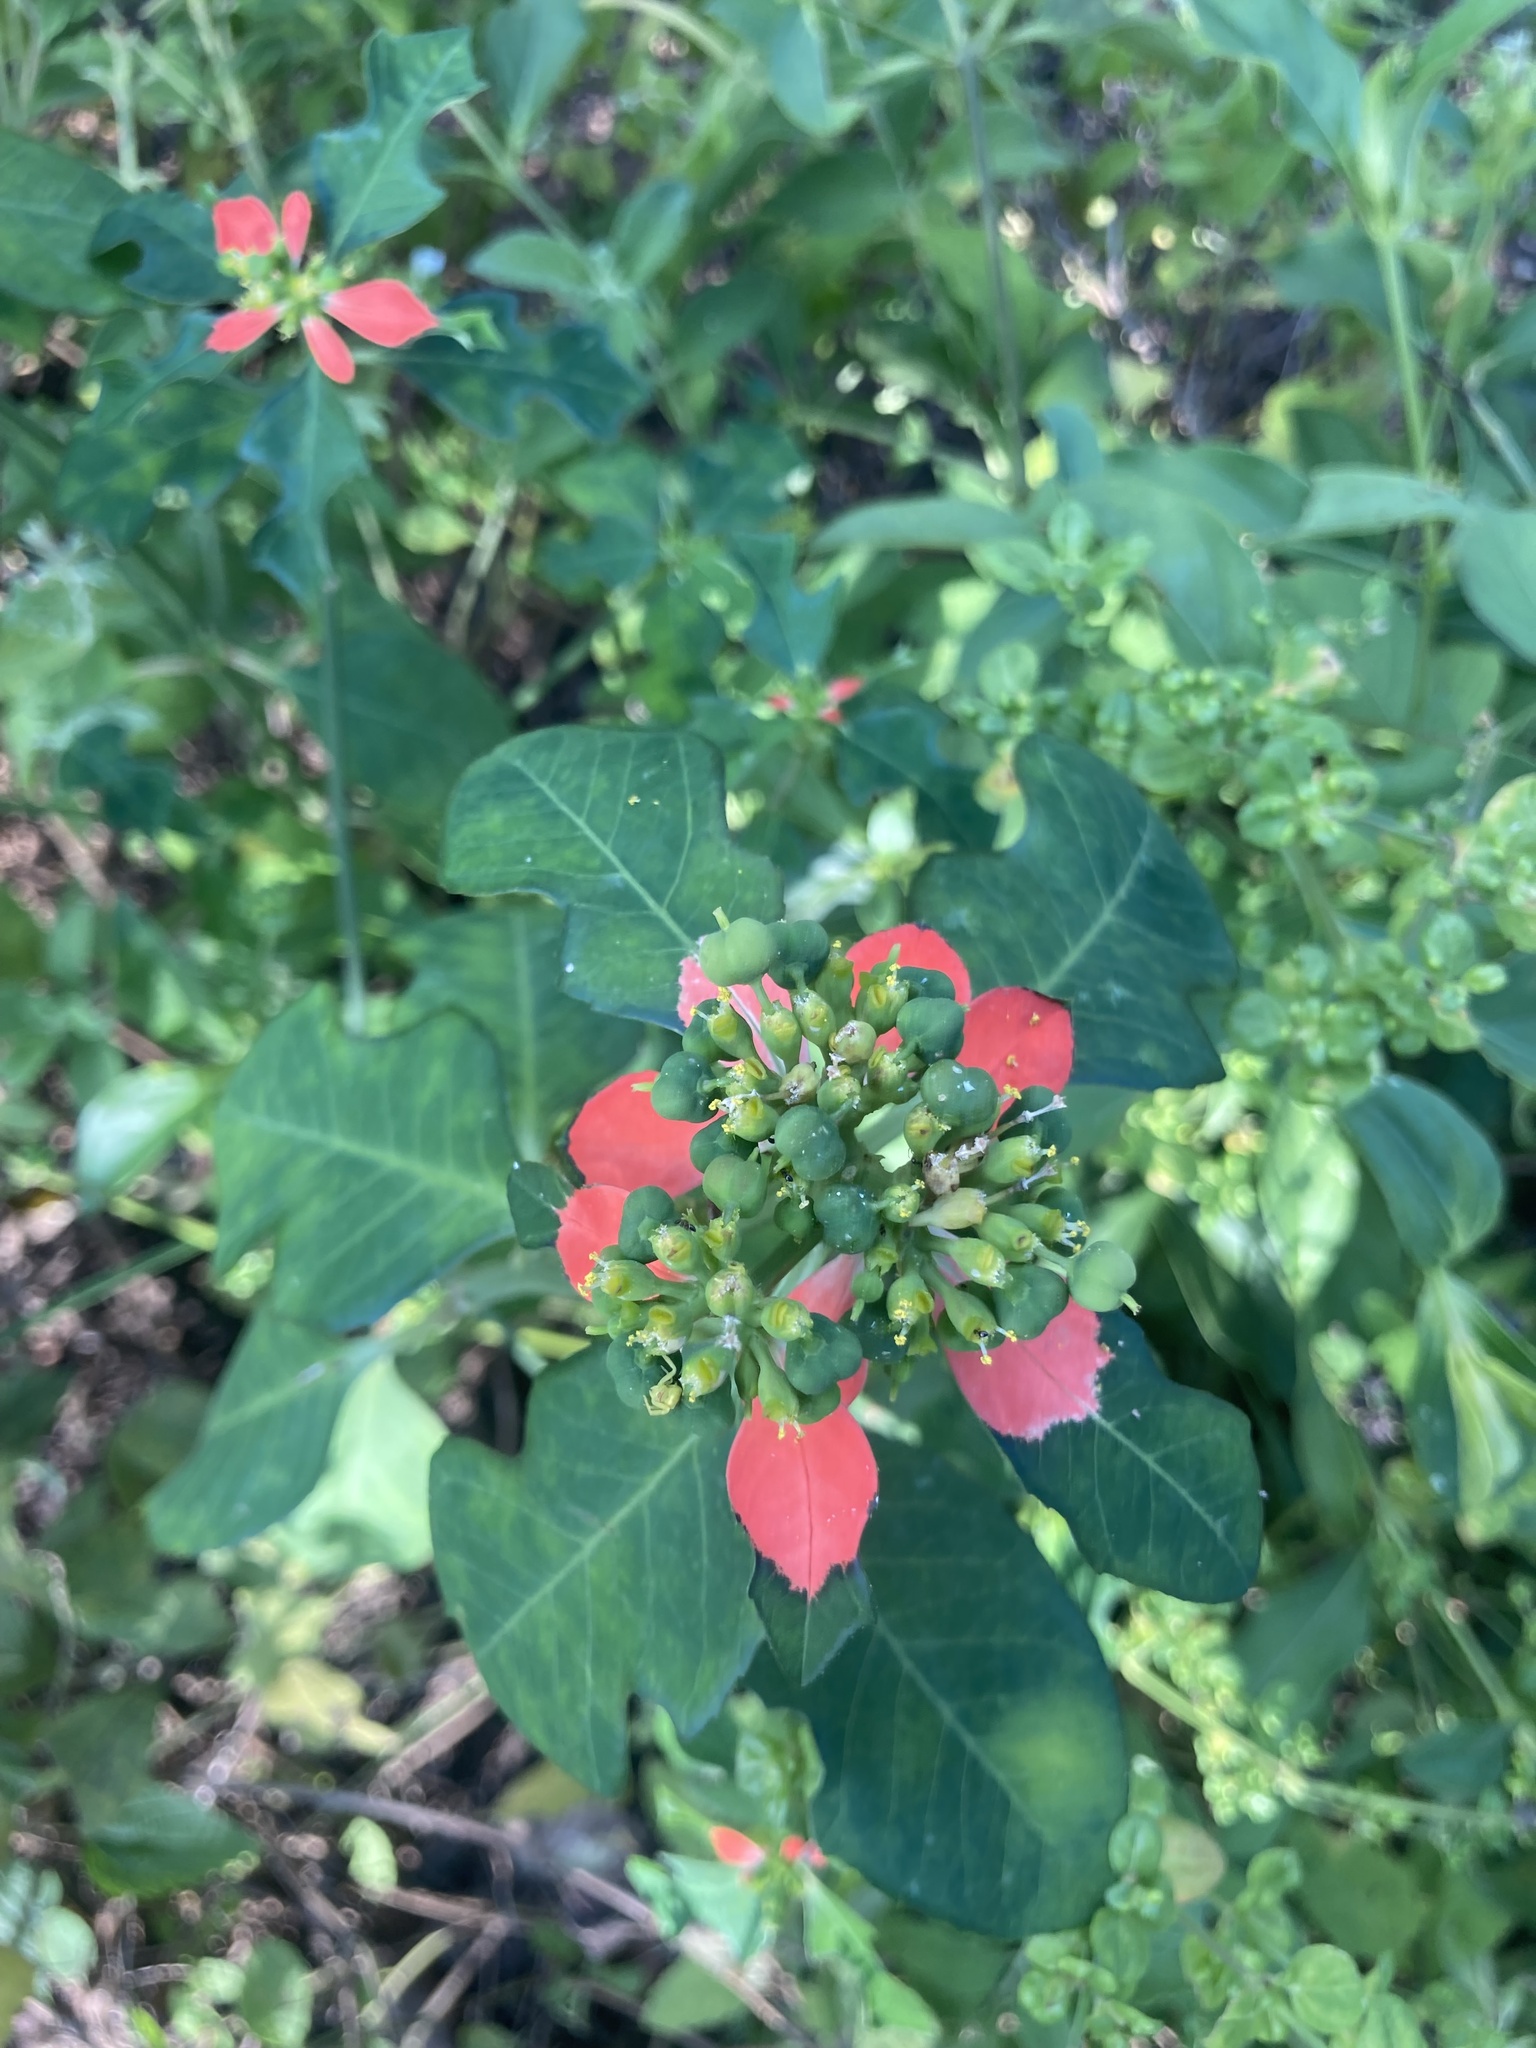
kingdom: Plantae
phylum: Tracheophyta
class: Magnoliopsida
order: Malpighiales
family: Euphorbiaceae
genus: Euphorbia
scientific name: Euphorbia heterophylla
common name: Mexican fireplant
